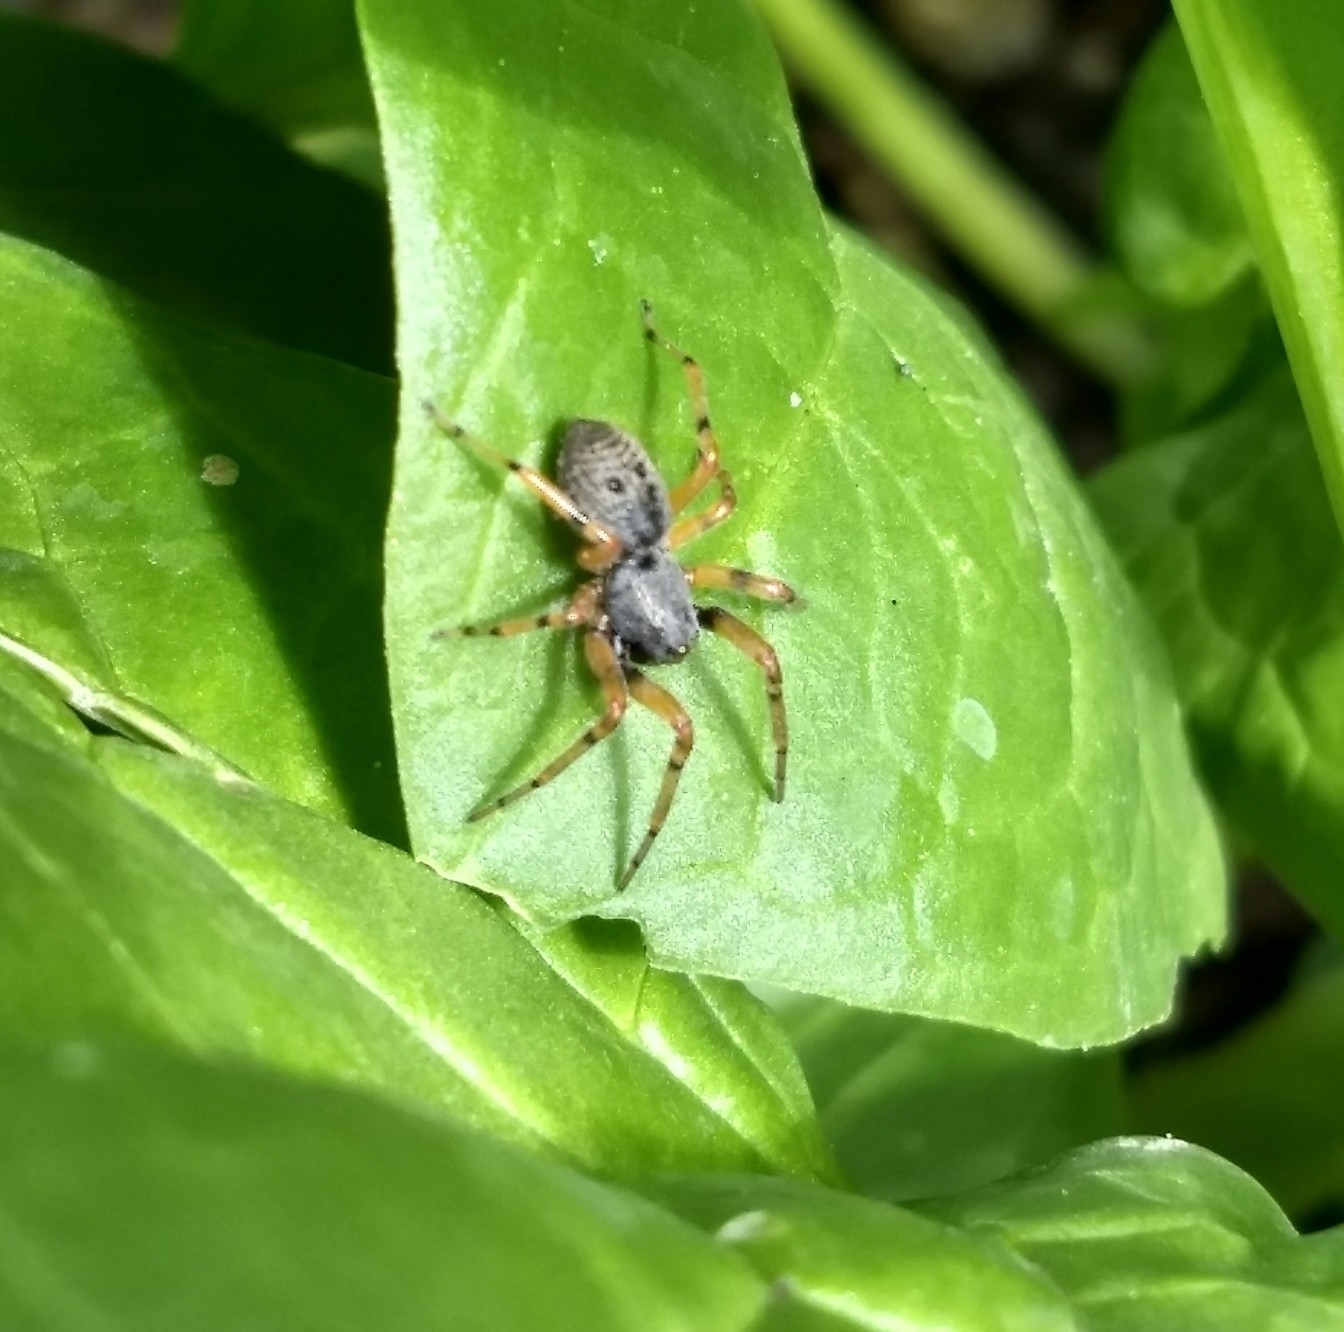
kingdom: Animalia
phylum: Arthropoda
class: Arachnida
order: Araneae
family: Trachelidae
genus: Trachelopachys
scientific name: Trachelopachys
